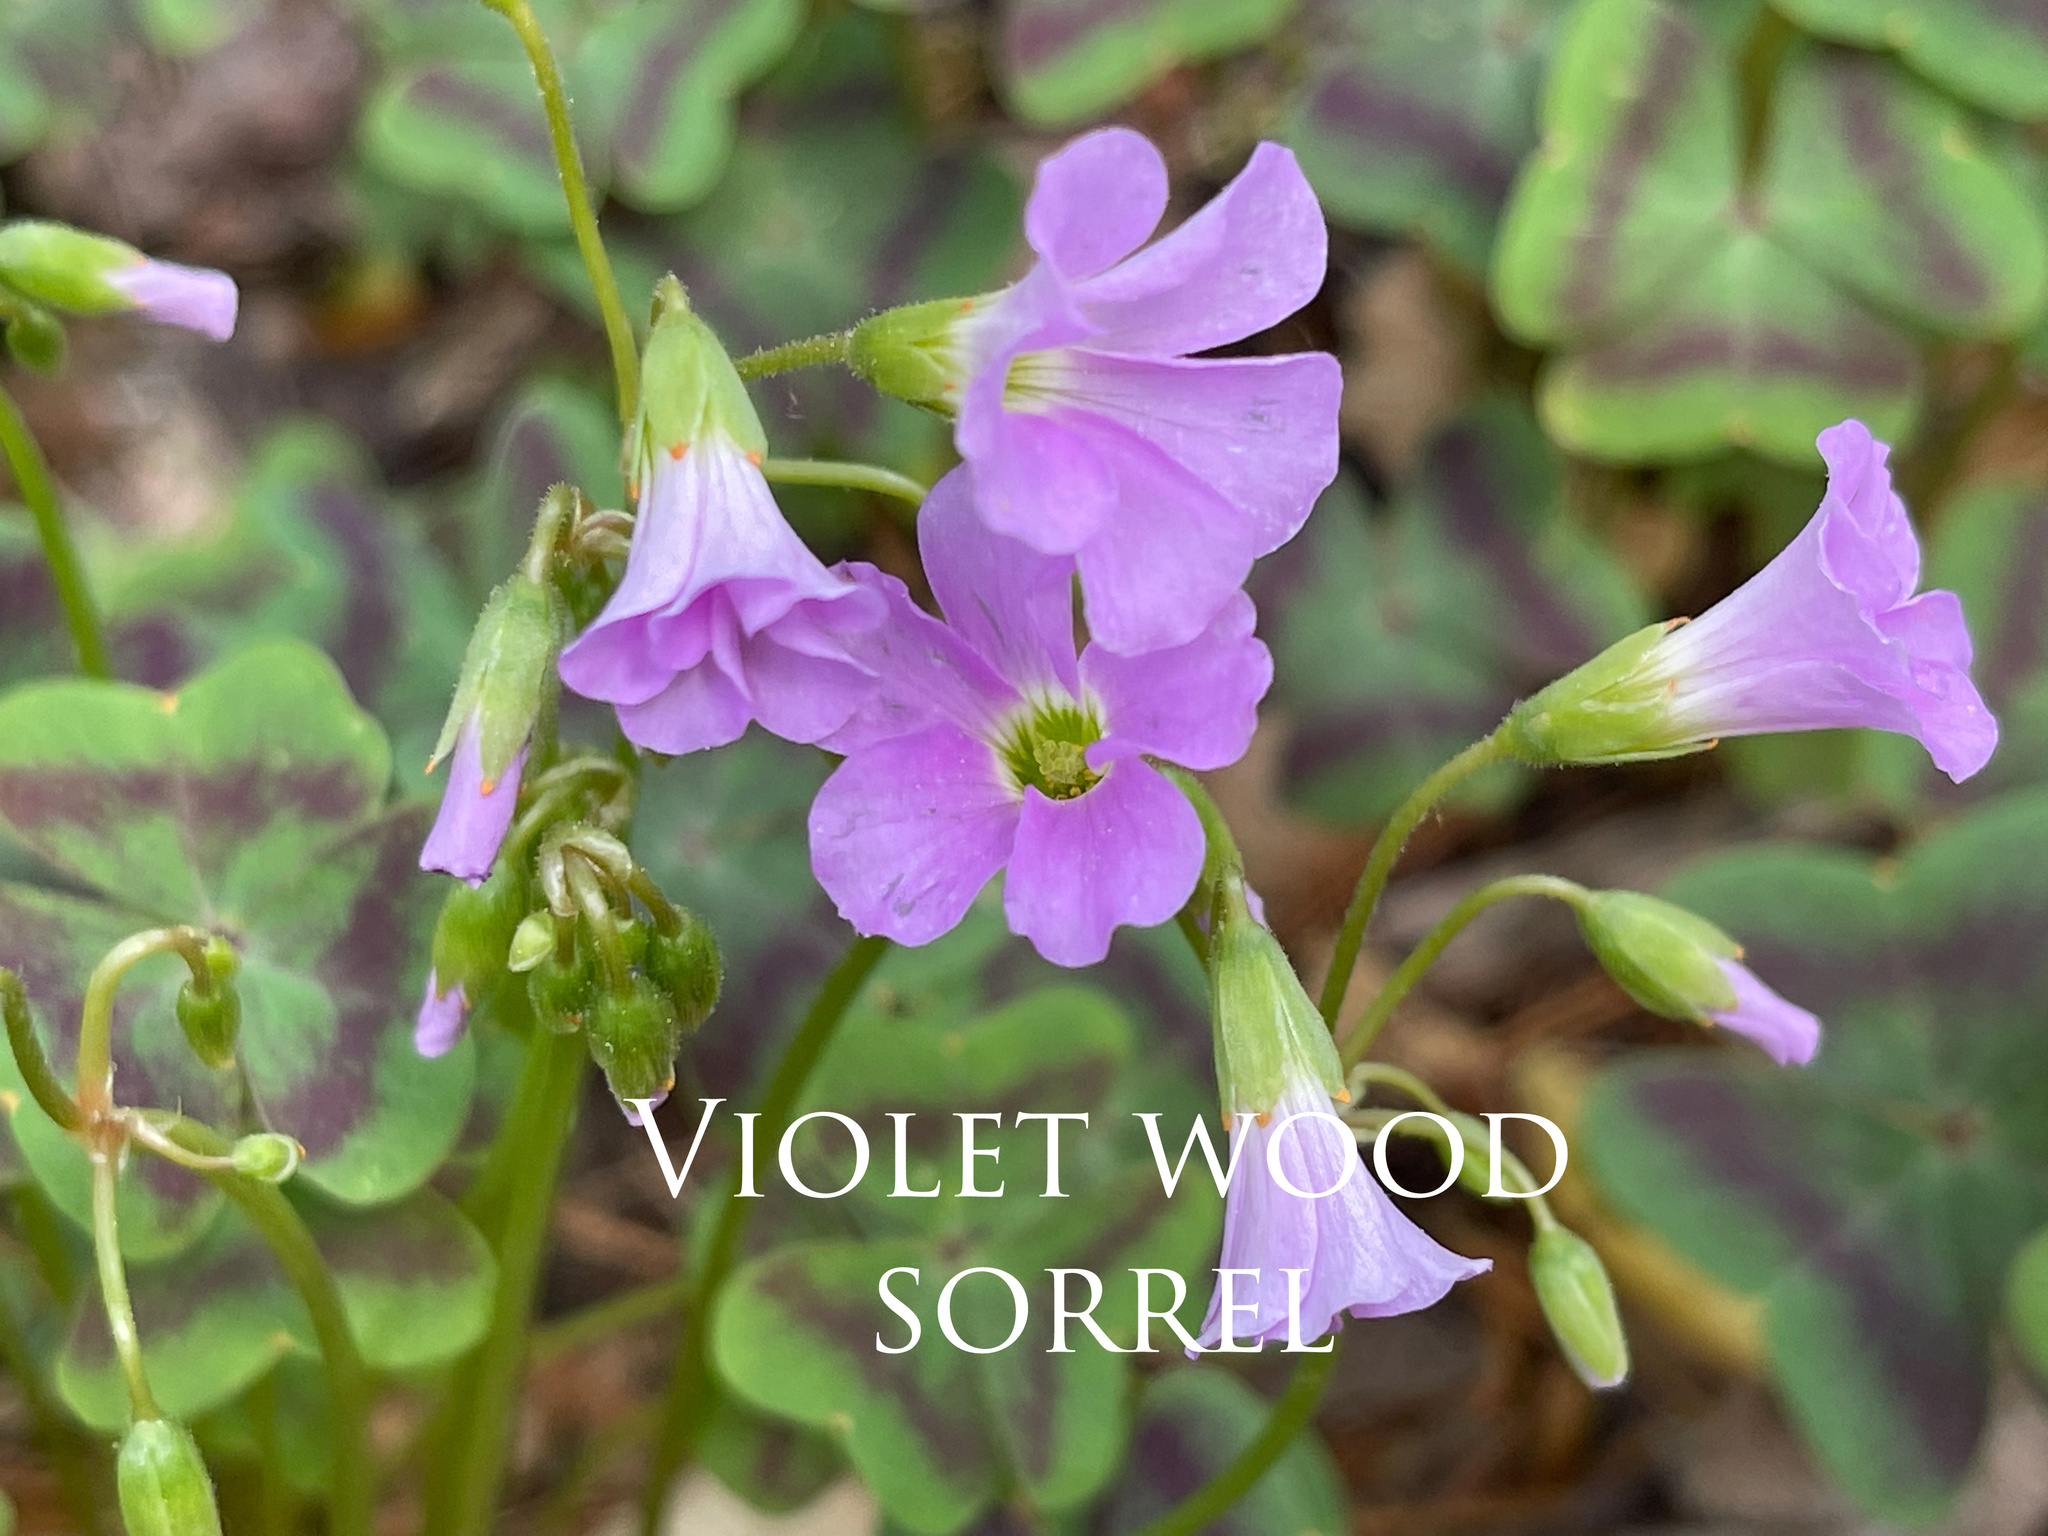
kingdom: Plantae
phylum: Tracheophyta
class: Magnoliopsida
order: Oxalidales
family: Oxalidaceae
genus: Oxalis
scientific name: Oxalis violacea
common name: Violet wood-sorrel
